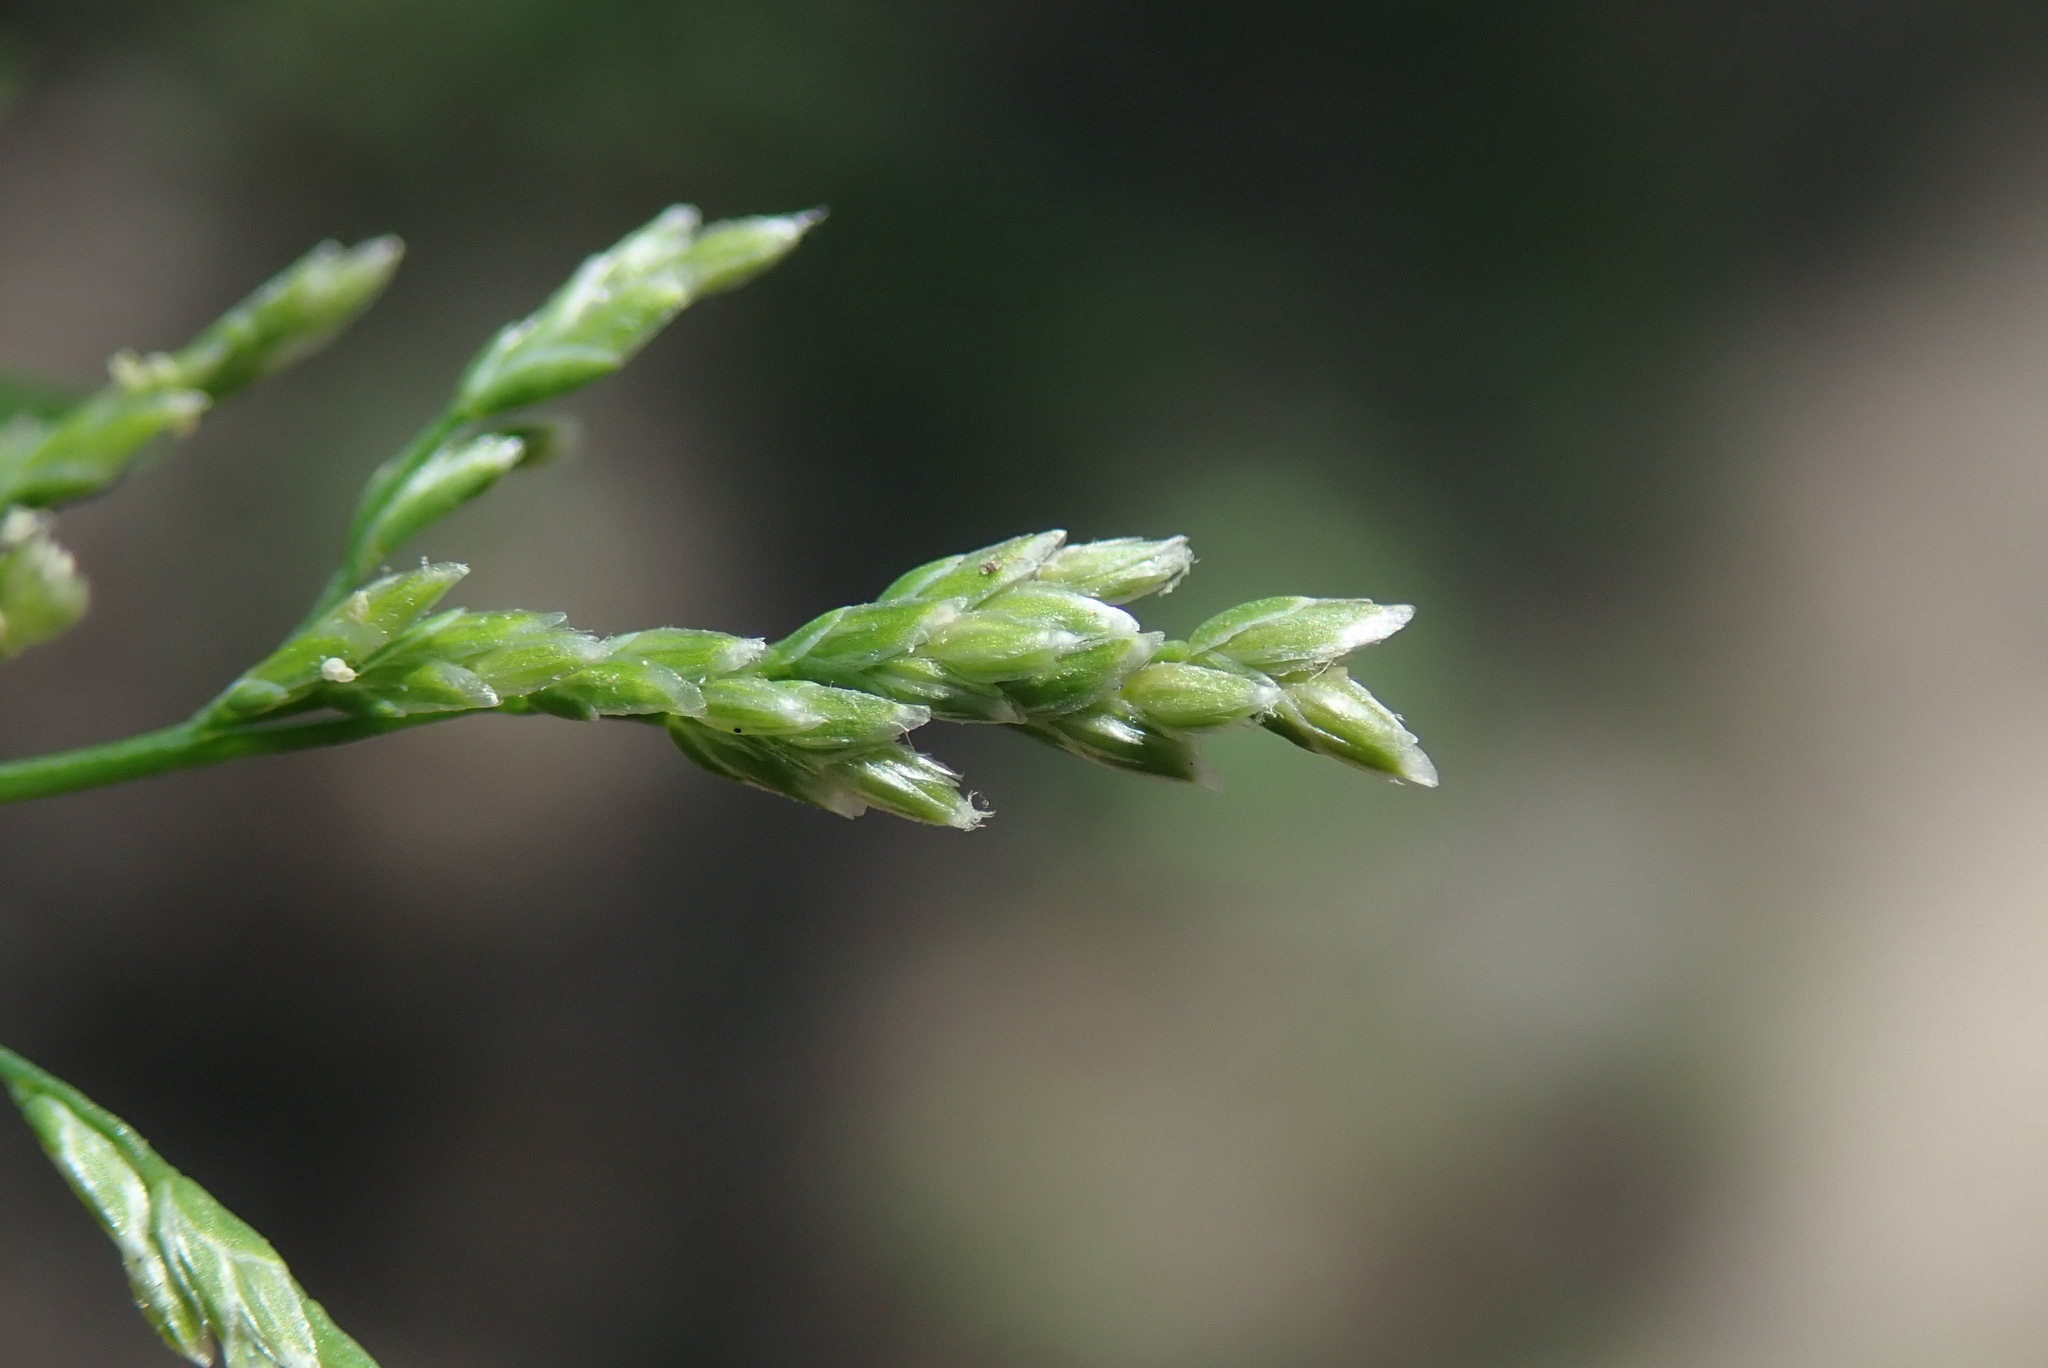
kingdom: Plantae
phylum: Tracheophyta
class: Liliopsida
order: Poales
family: Poaceae
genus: Poa
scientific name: Poa annua
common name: Annual bluegrass
